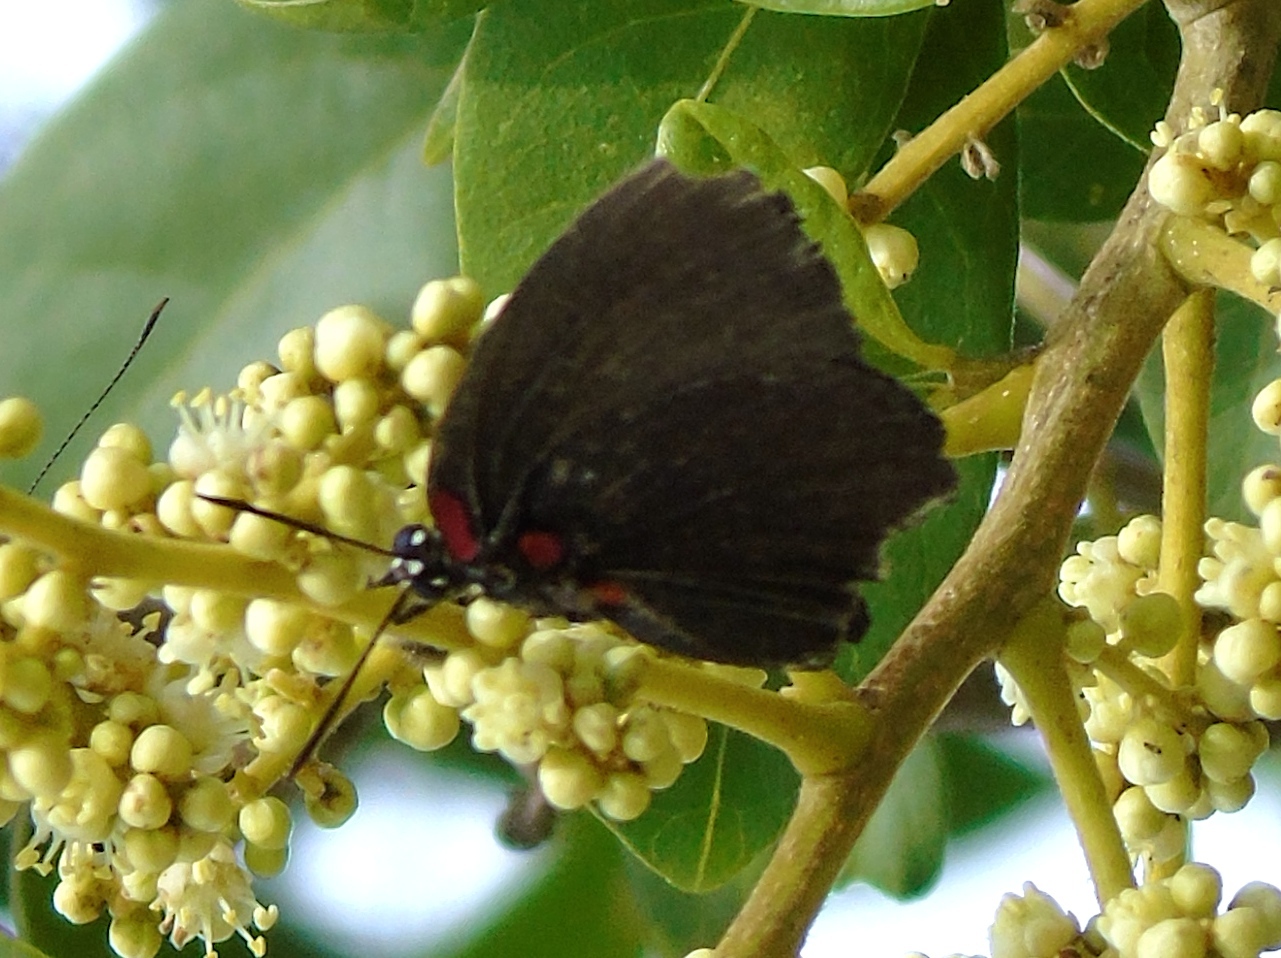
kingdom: Animalia
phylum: Arthropoda
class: Insecta
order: Lepidoptera
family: Lycaenidae
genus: Atlides
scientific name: Atlides
